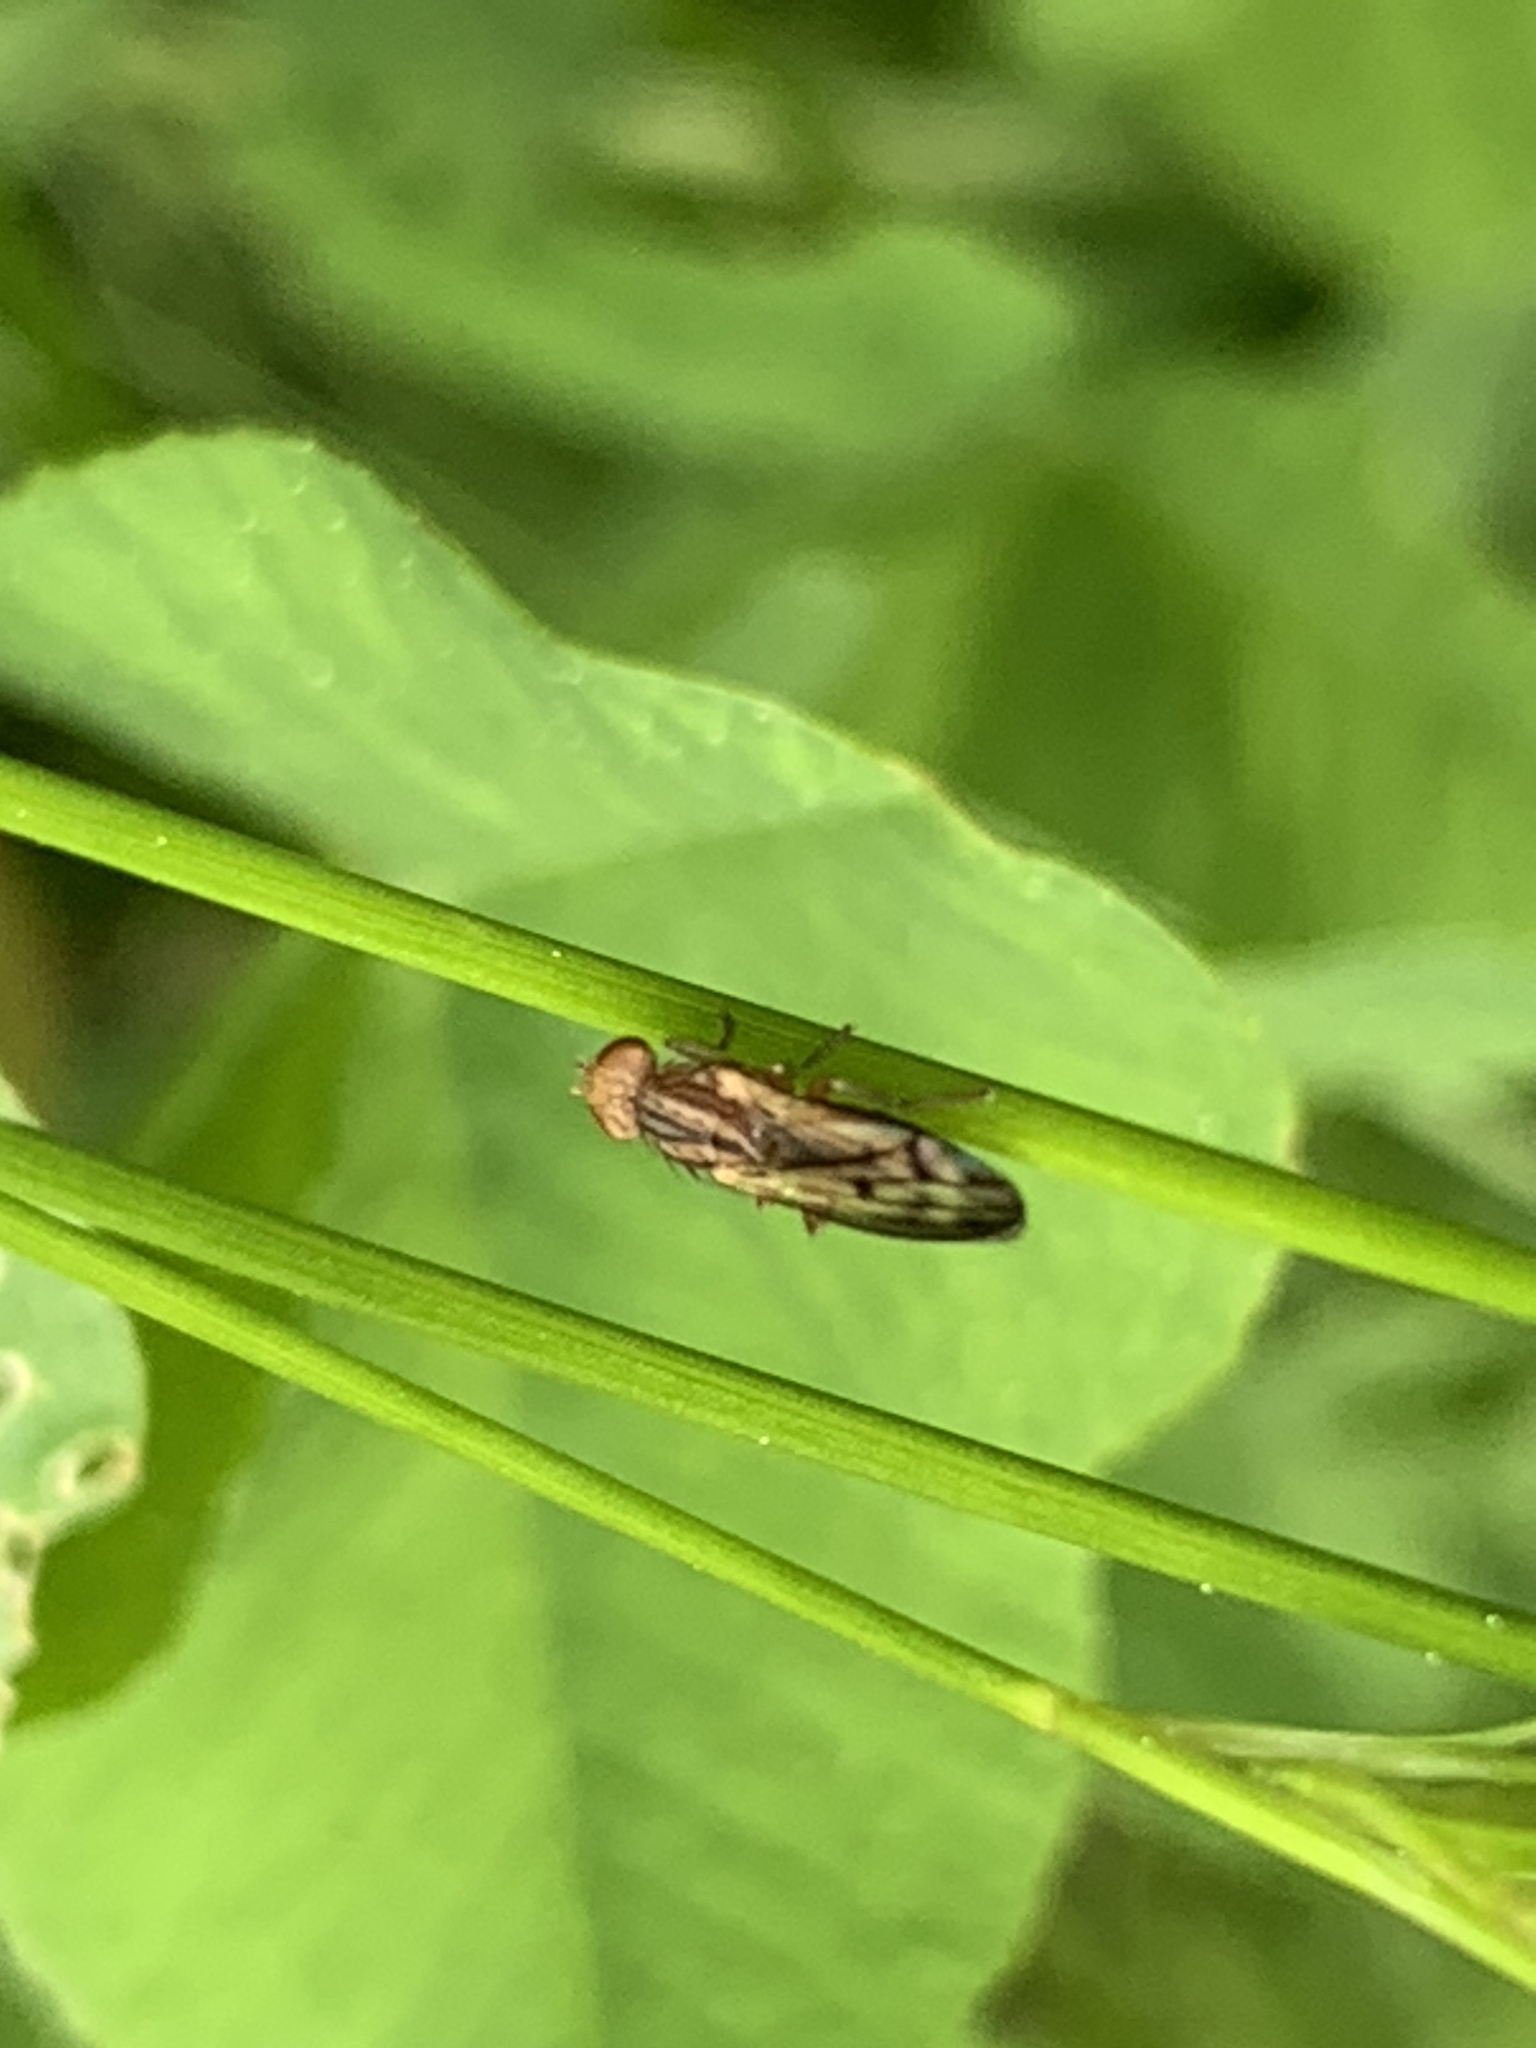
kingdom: Animalia
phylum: Arthropoda
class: Insecta
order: Diptera
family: Opomyzidae
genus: Opomyza
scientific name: Opomyza germinationis
